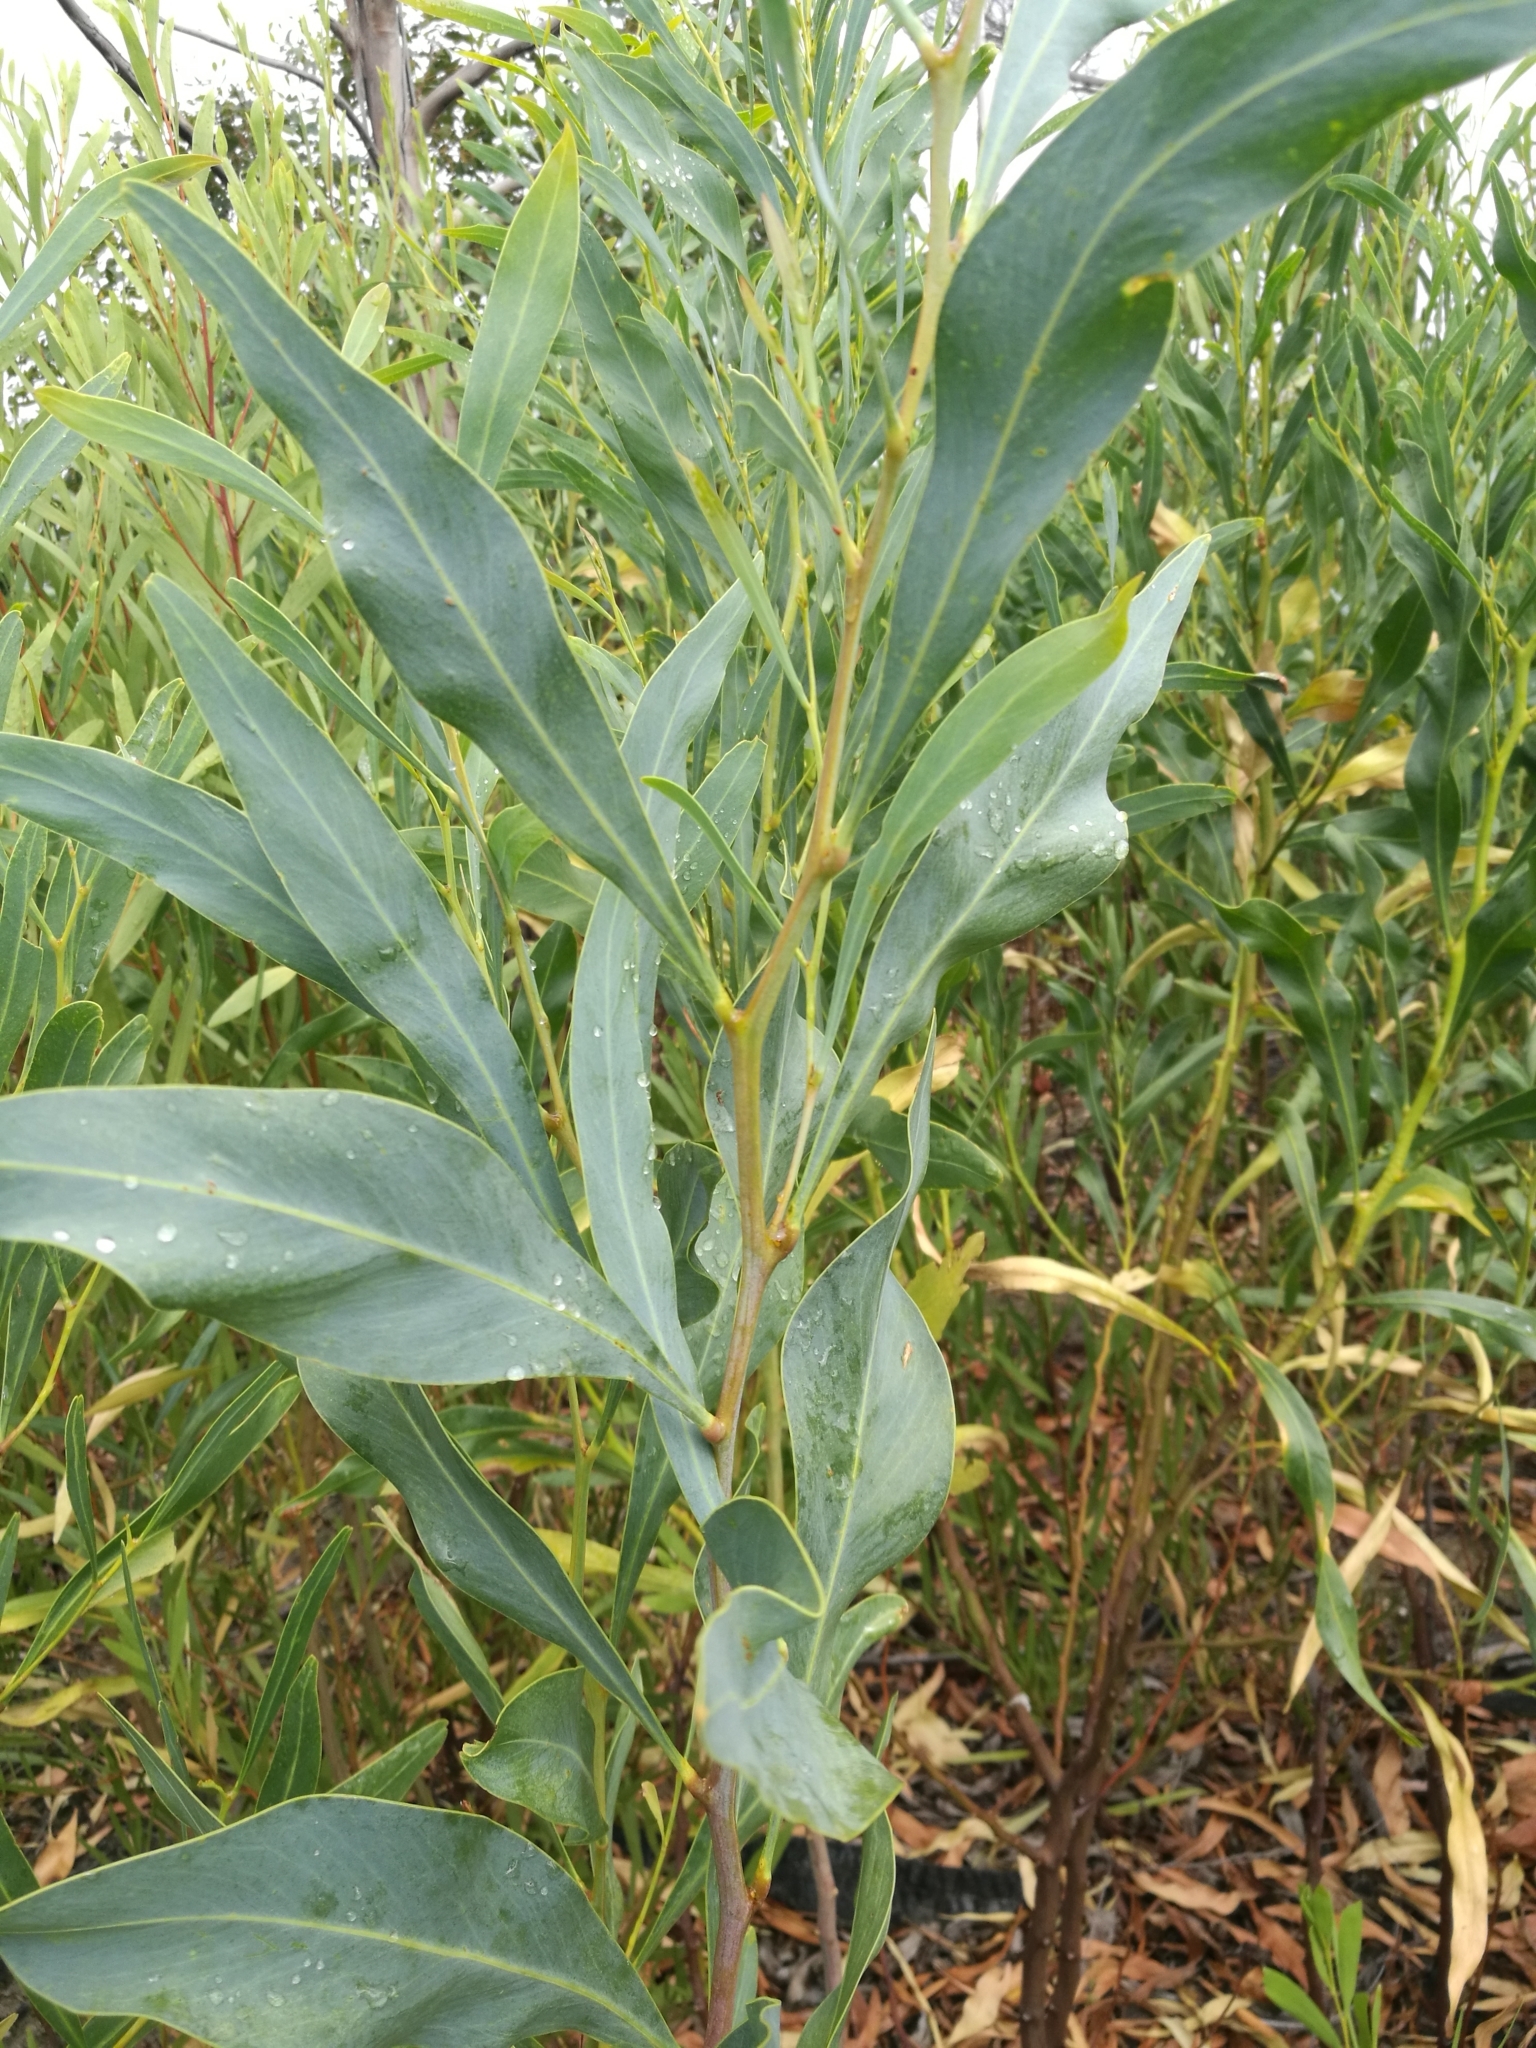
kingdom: Plantae
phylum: Tracheophyta
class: Magnoliopsida
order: Fabales
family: Fabaceae
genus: Acacia
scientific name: Acacia saligna
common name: Orange wattle
